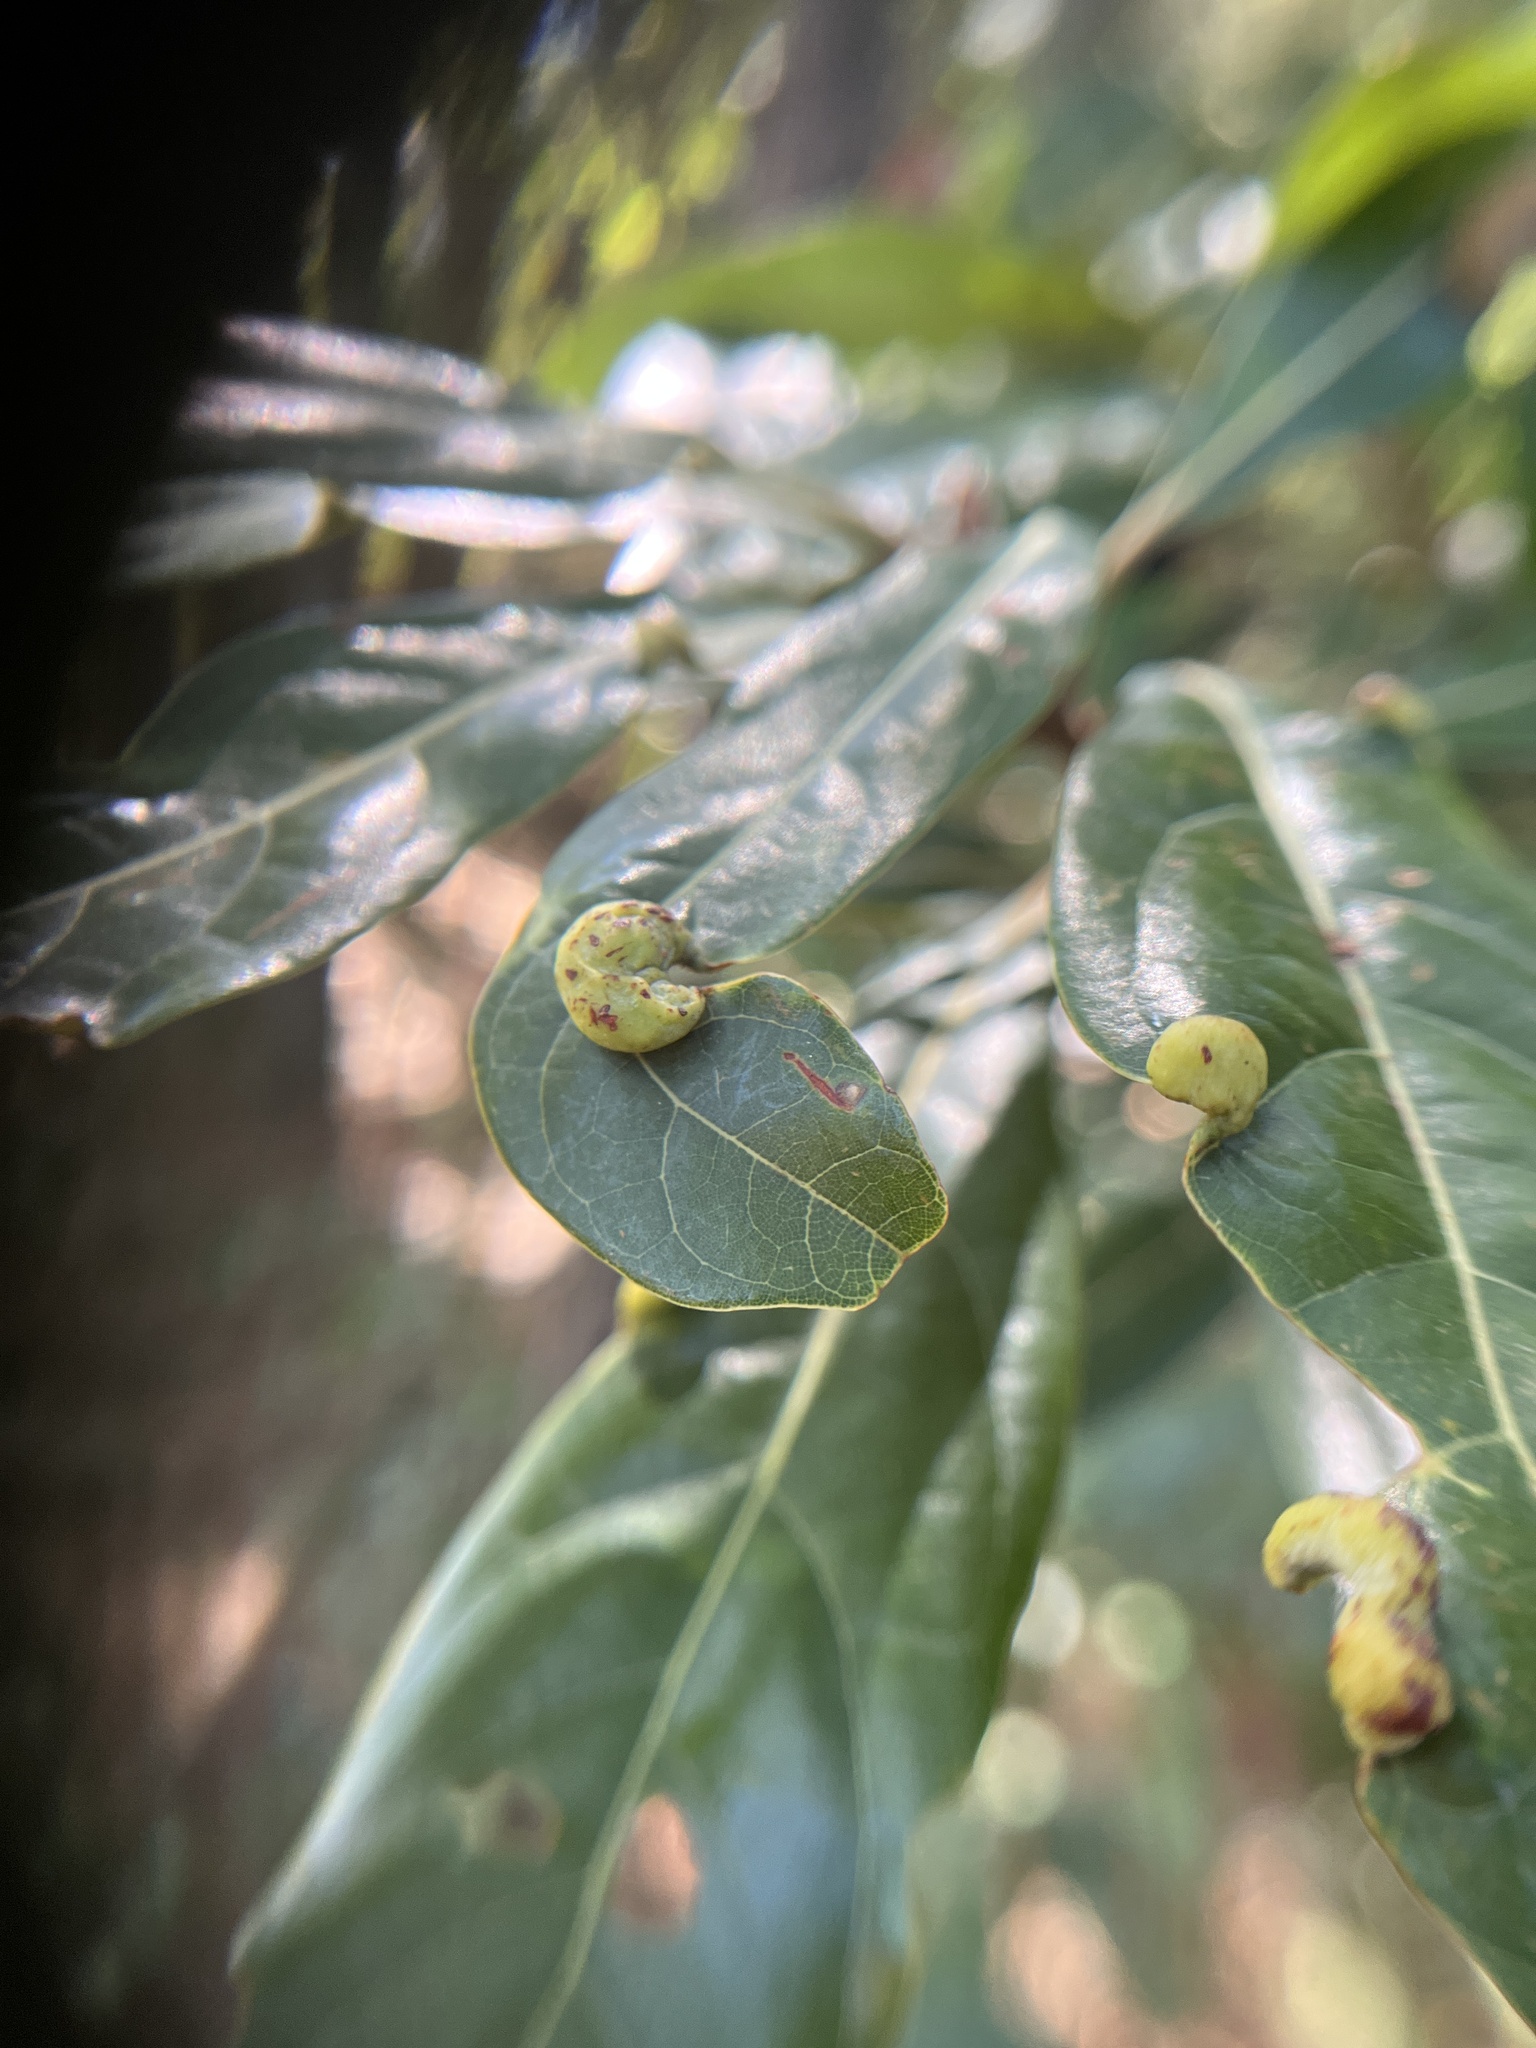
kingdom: Animalia
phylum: Arthropoda
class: Insecta
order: Hemiptera
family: Triozidae
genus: Trioza
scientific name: Trioza magnoliae
